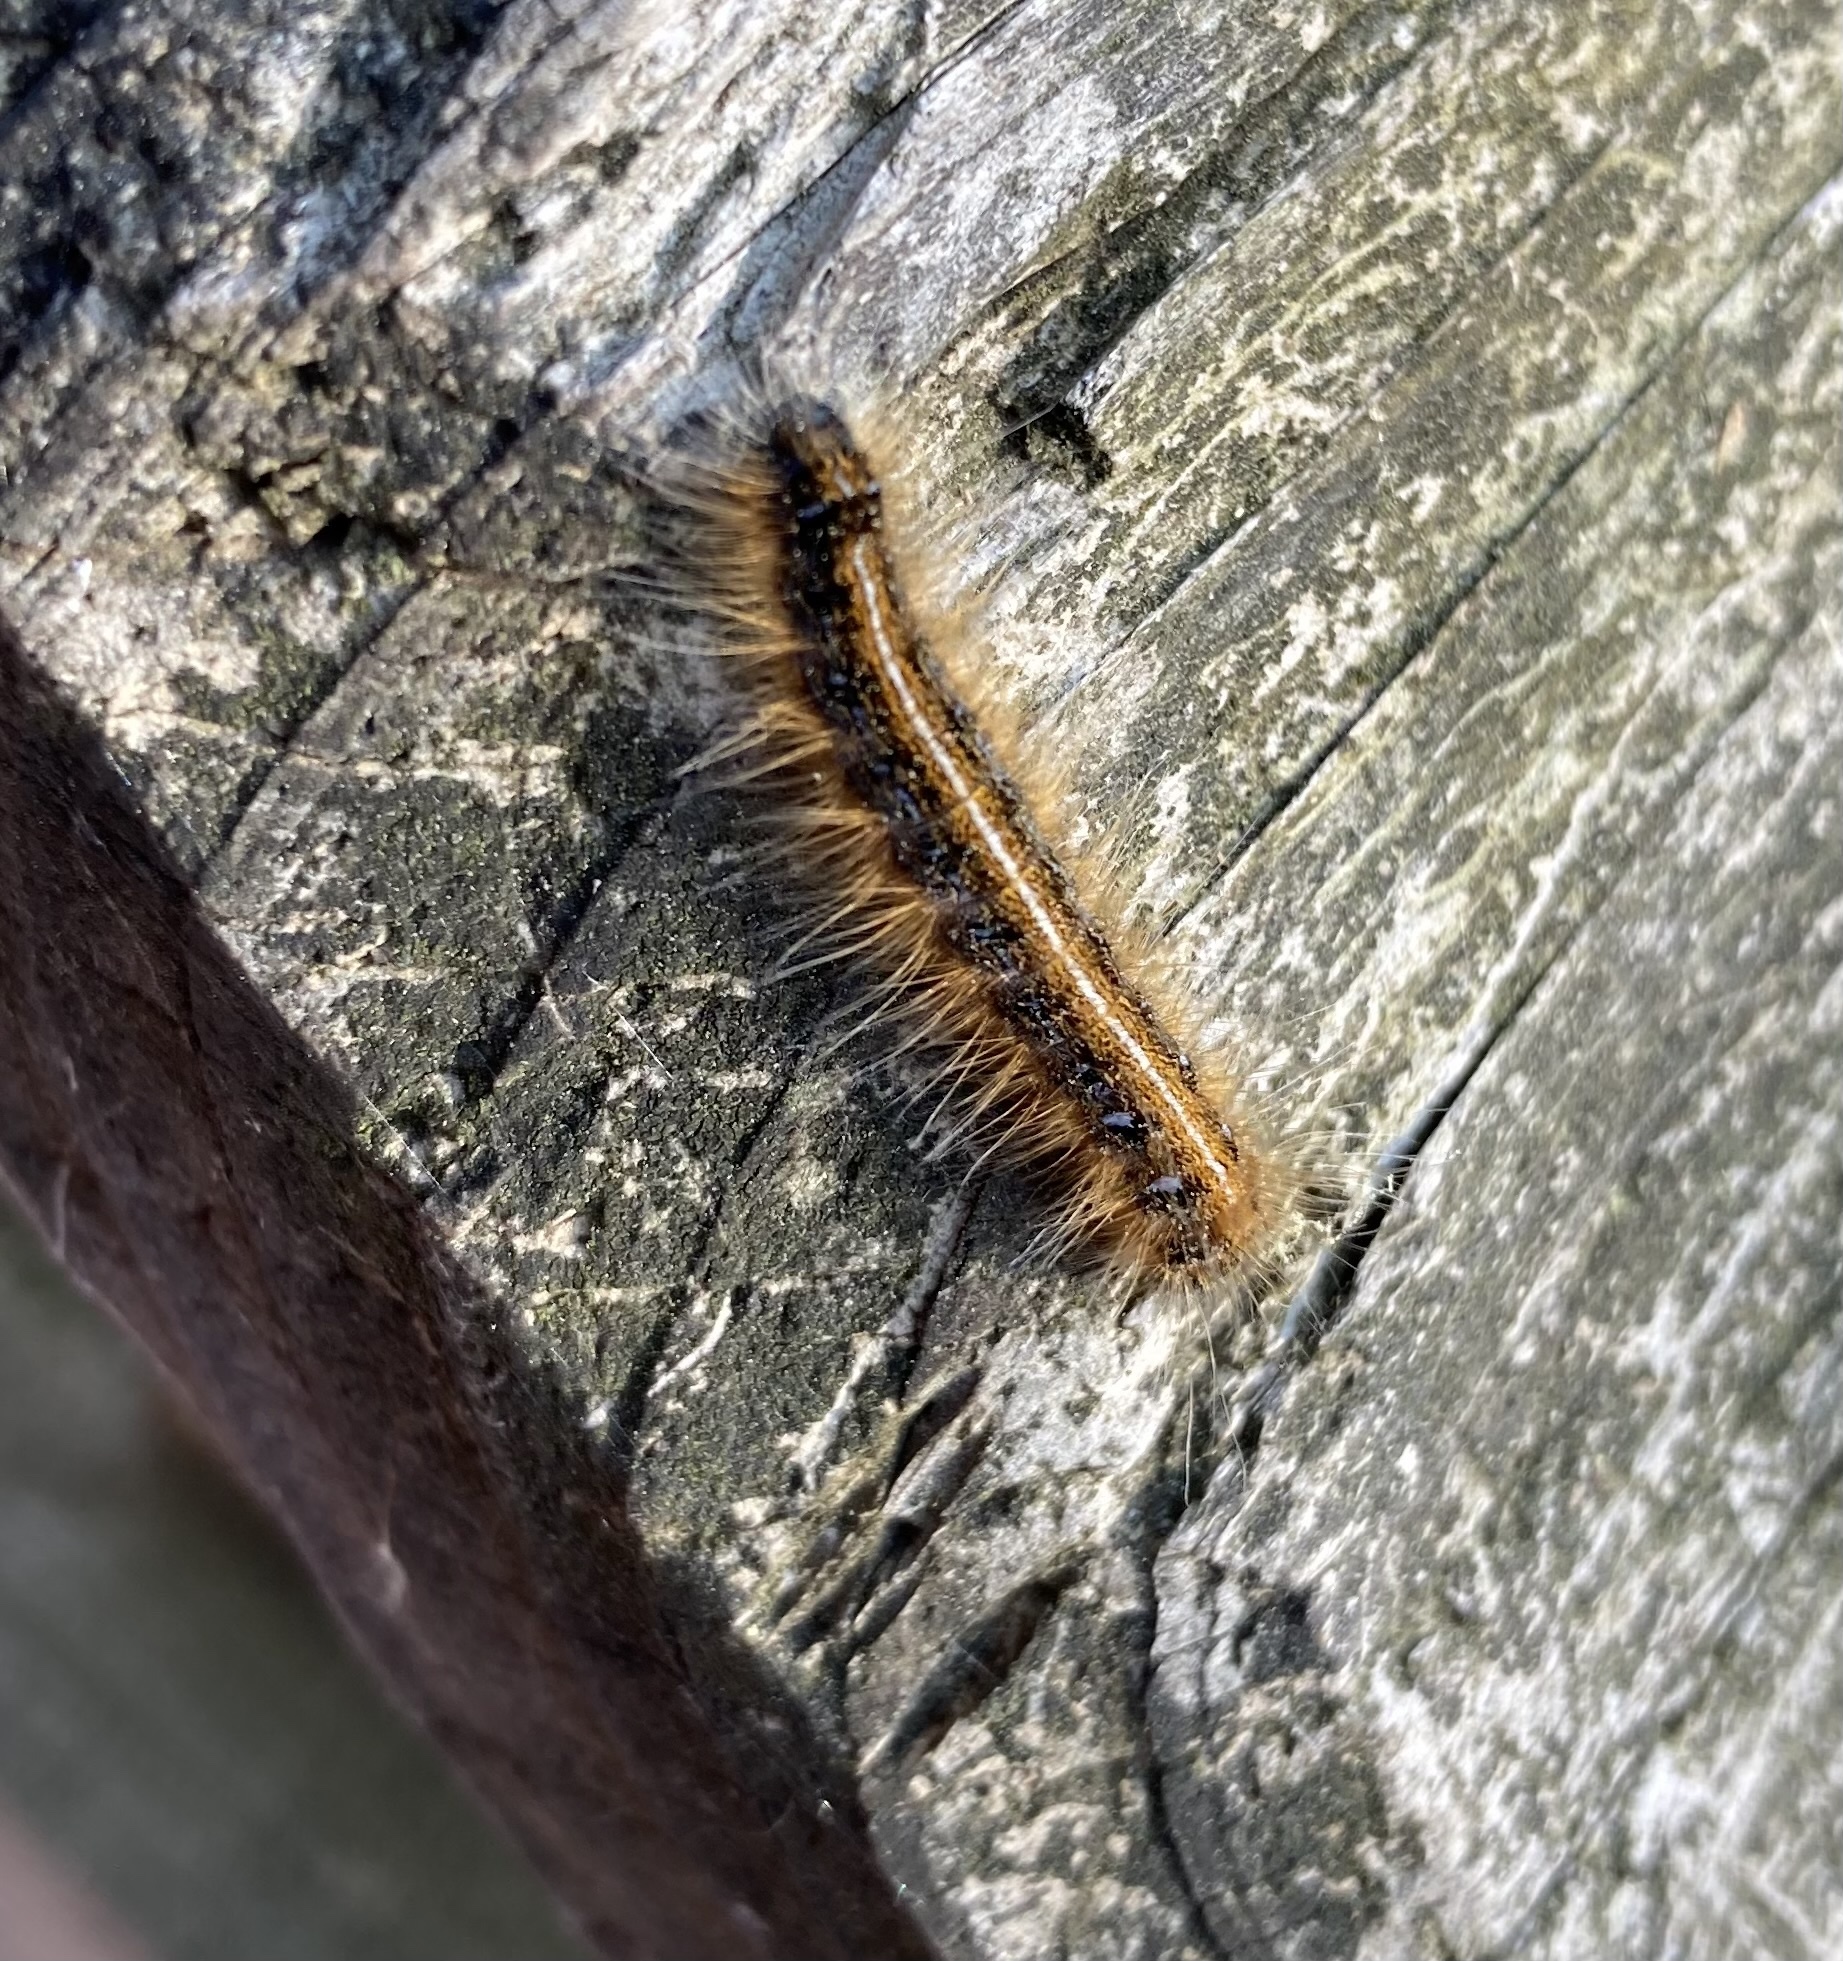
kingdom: Animalia
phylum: Arthropoda
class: Insecta
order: Lepidoptera
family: Lasiocampidae
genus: Malacosoma
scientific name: Malacosoma americana
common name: Eastern tent caterpillar moth
